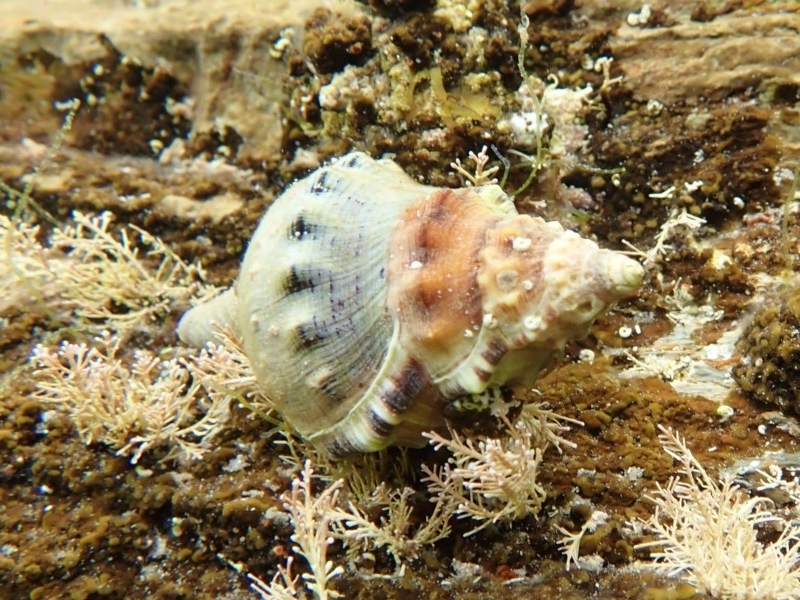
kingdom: Animalia
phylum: Mollusca
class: Gastropoda
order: Littorinimorpha
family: Ranellidae
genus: Ranella
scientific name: Ranella australasia
